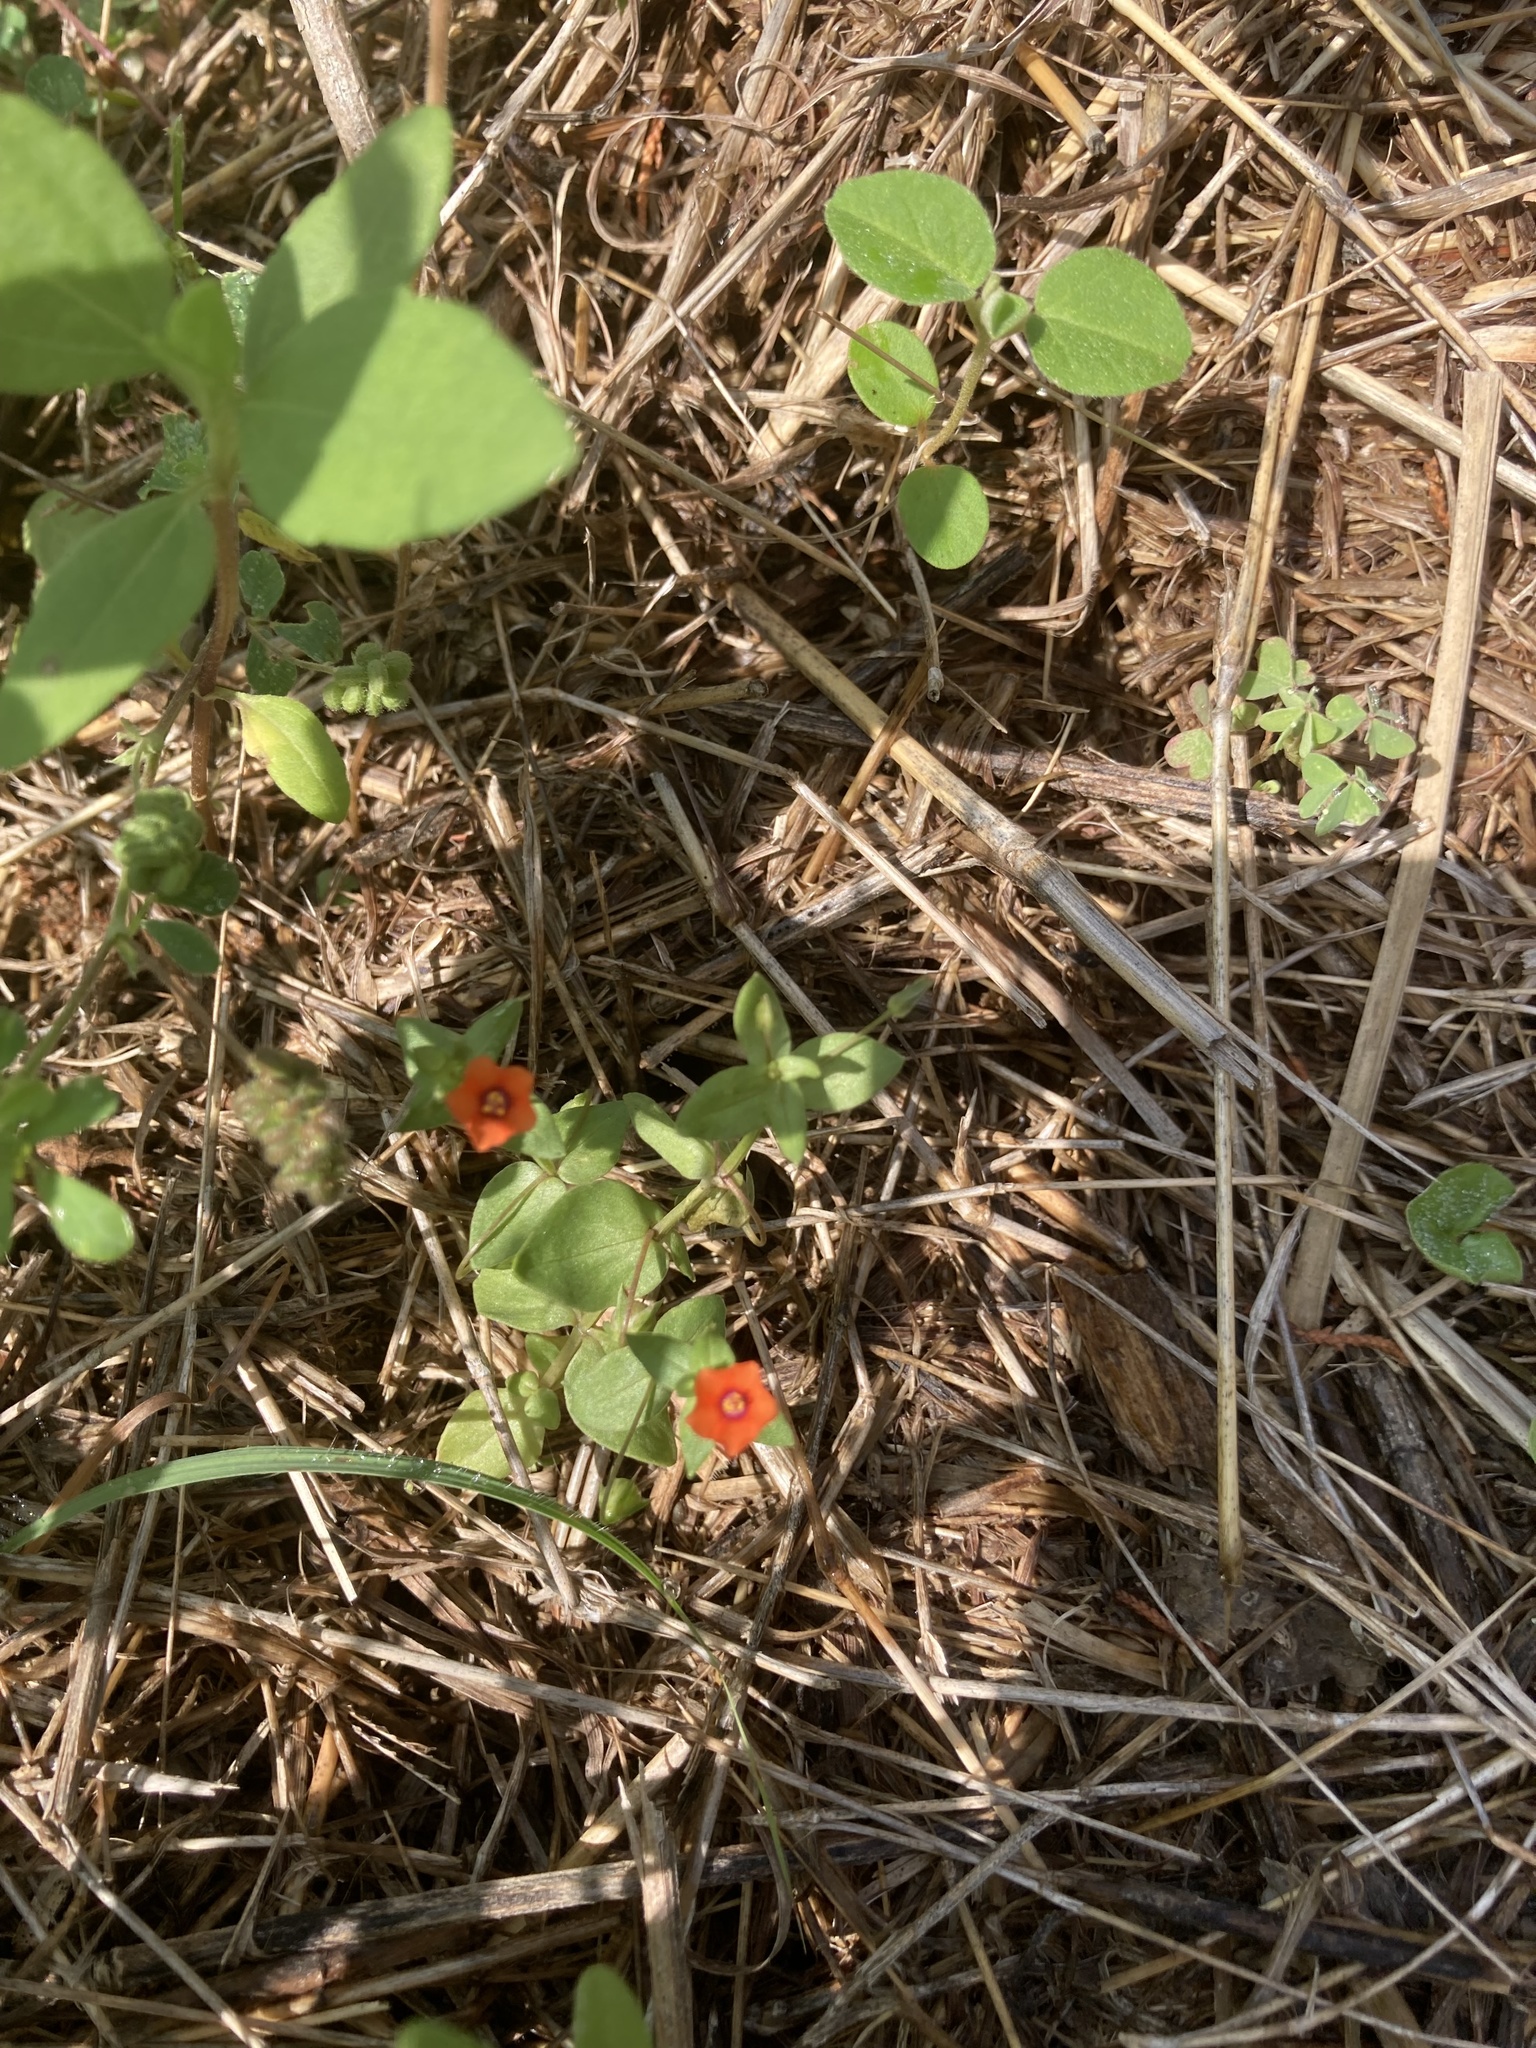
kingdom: Plantae
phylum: Tracheophyta
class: Magnoliopsida
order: Ericales
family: Primulaceae
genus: Lysimachia
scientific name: Lysimachia arvensis
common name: Scarlet pimpernel
